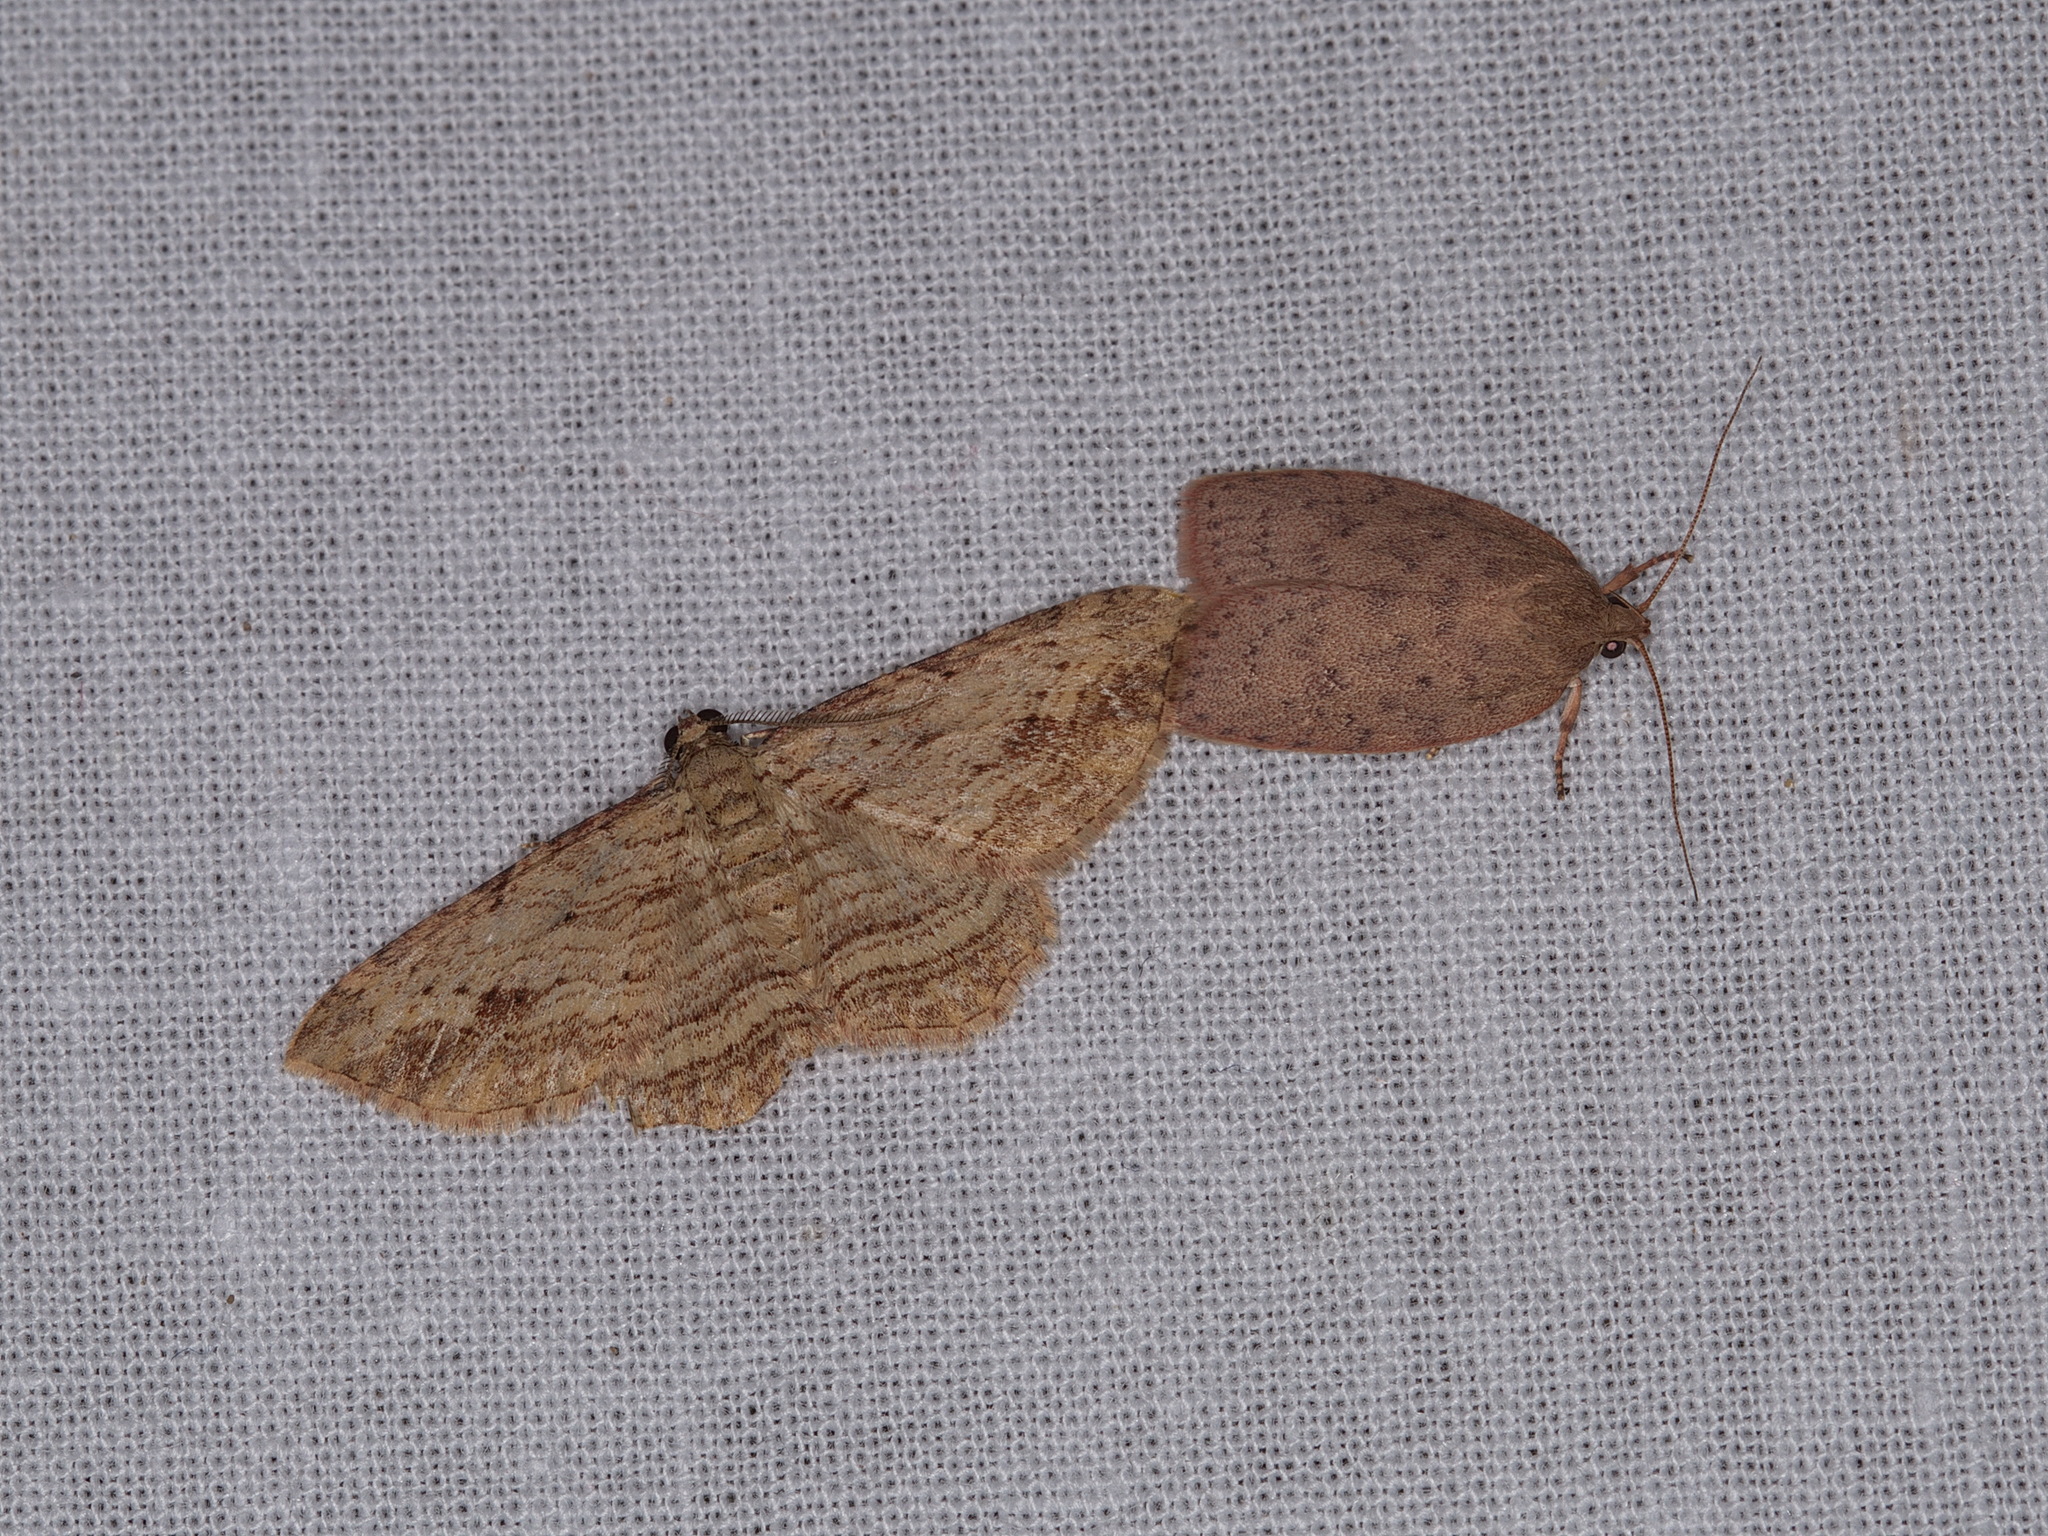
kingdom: Animalia
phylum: Arthropoda
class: Insecta
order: Lepidoptera
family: Geometridae
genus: Xanthorhoe
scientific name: Xanthorhoe anaspila
